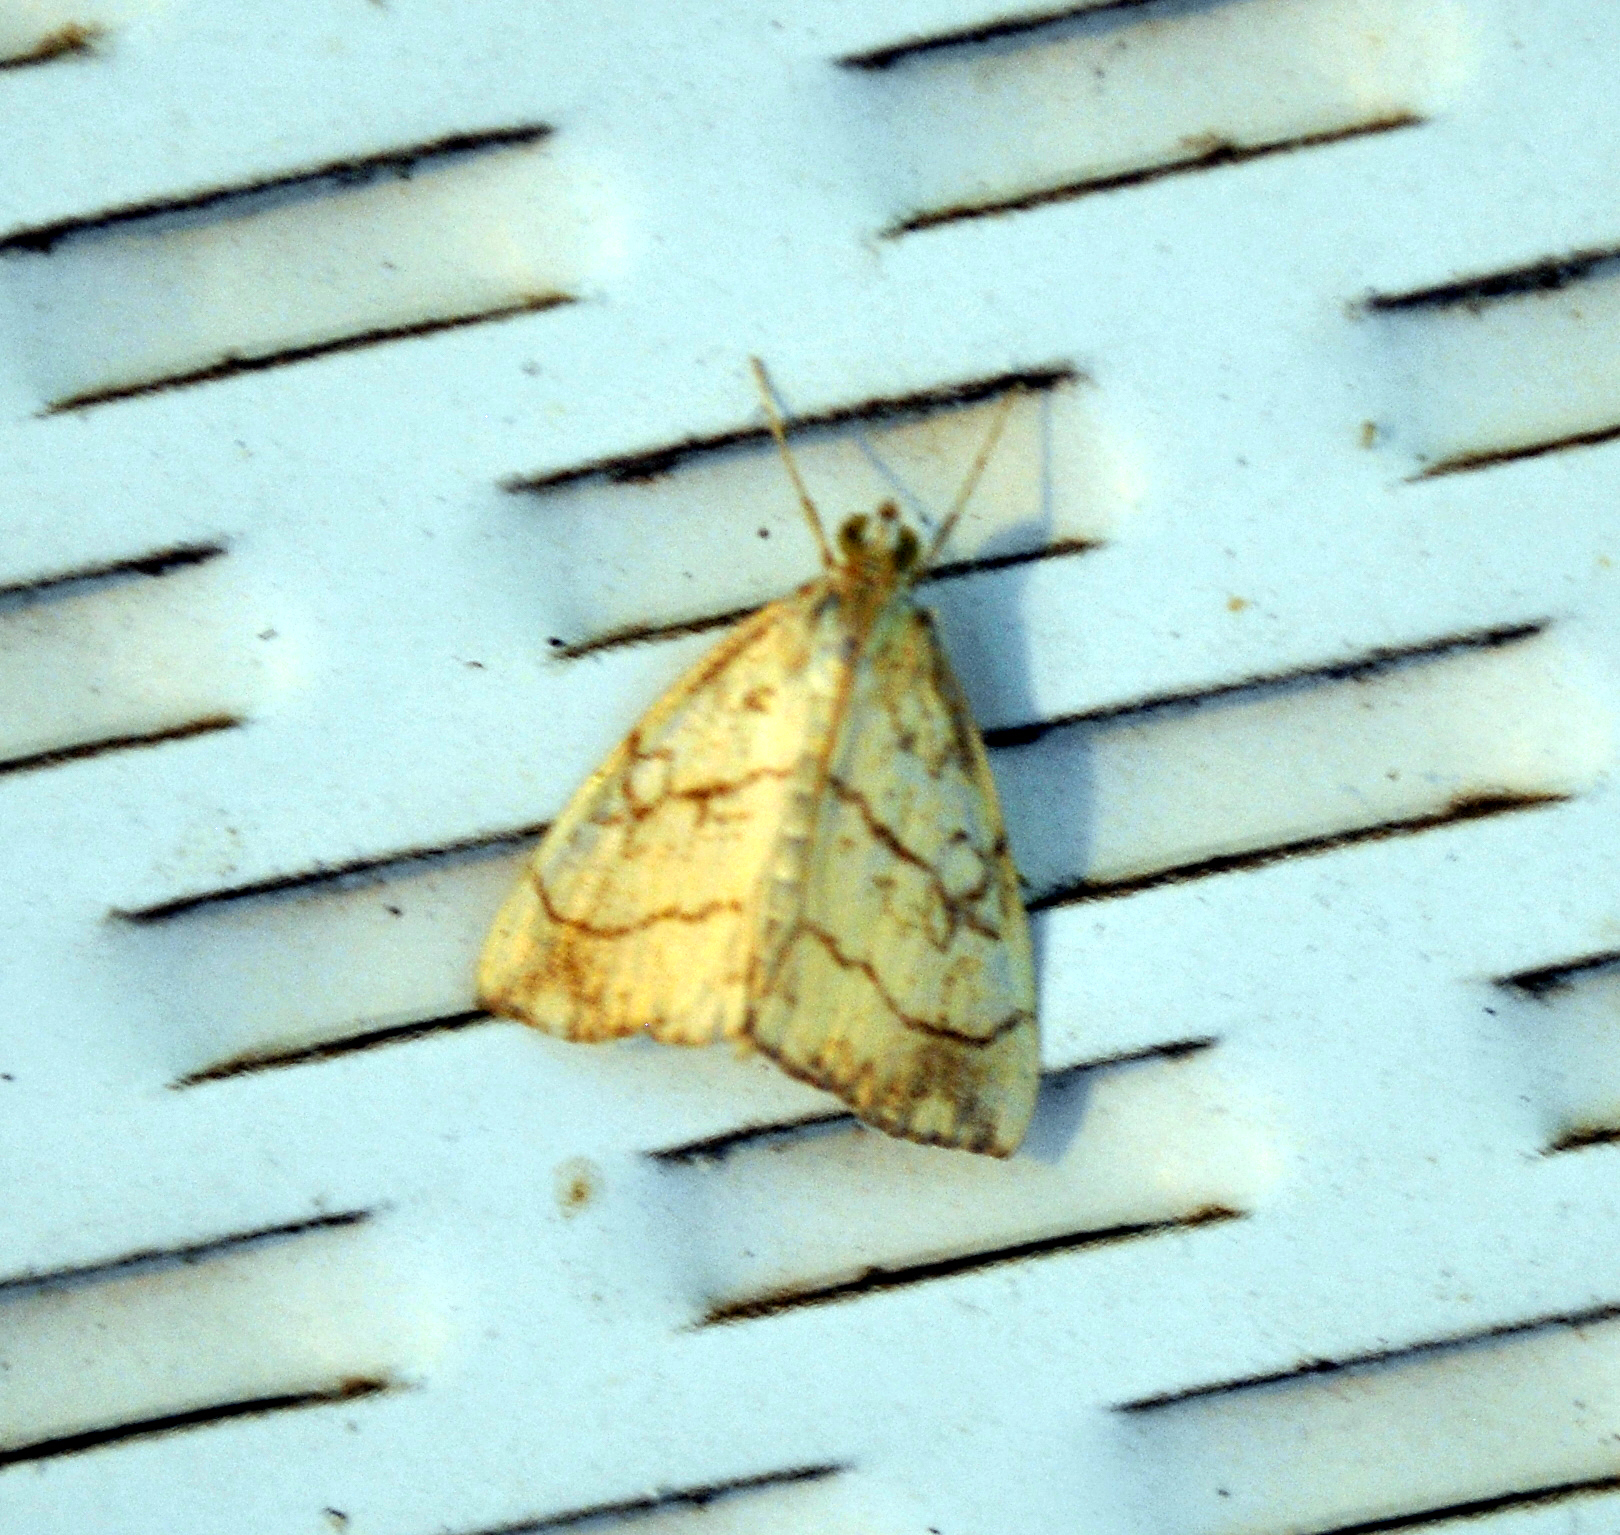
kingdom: Animalia
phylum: Arthropoda
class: Insecta
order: Lepidoptera
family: Crambidae
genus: Evergestis
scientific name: Evergestis pallidata
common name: Chequered pearl
